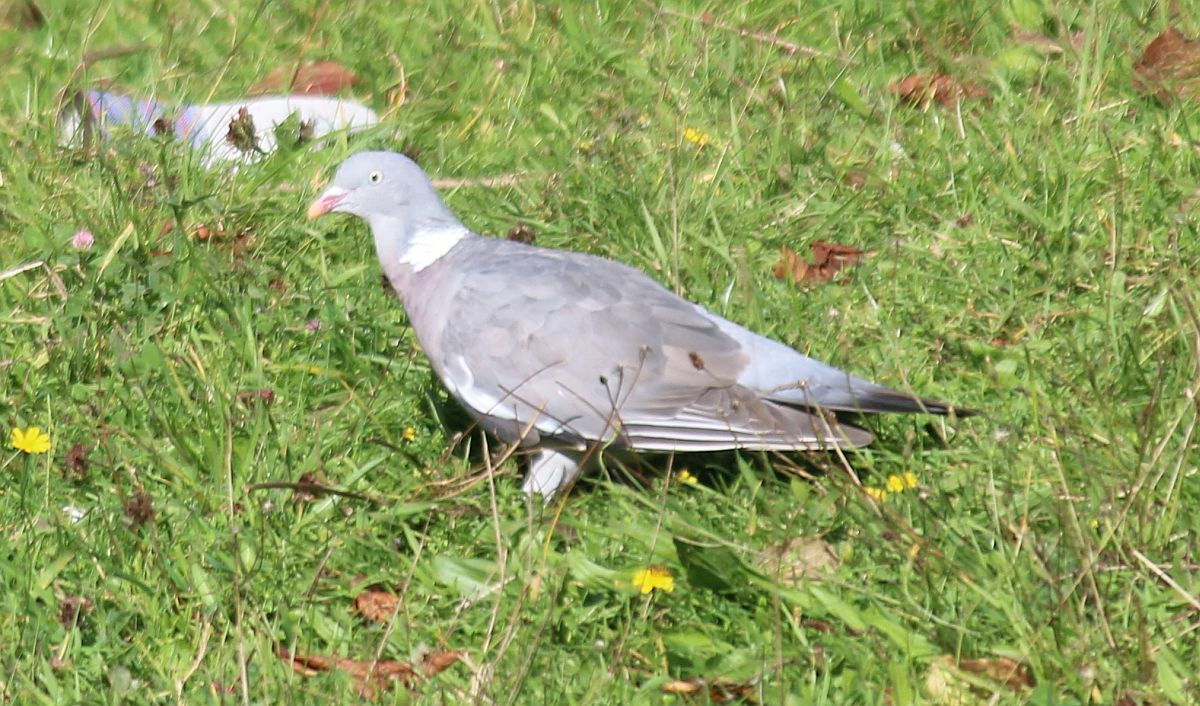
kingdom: Animalia
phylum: Chordata
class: Aves
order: Columbiformes
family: Columbidae
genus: Columba
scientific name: Columba palumbus
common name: Common wood pigeon
